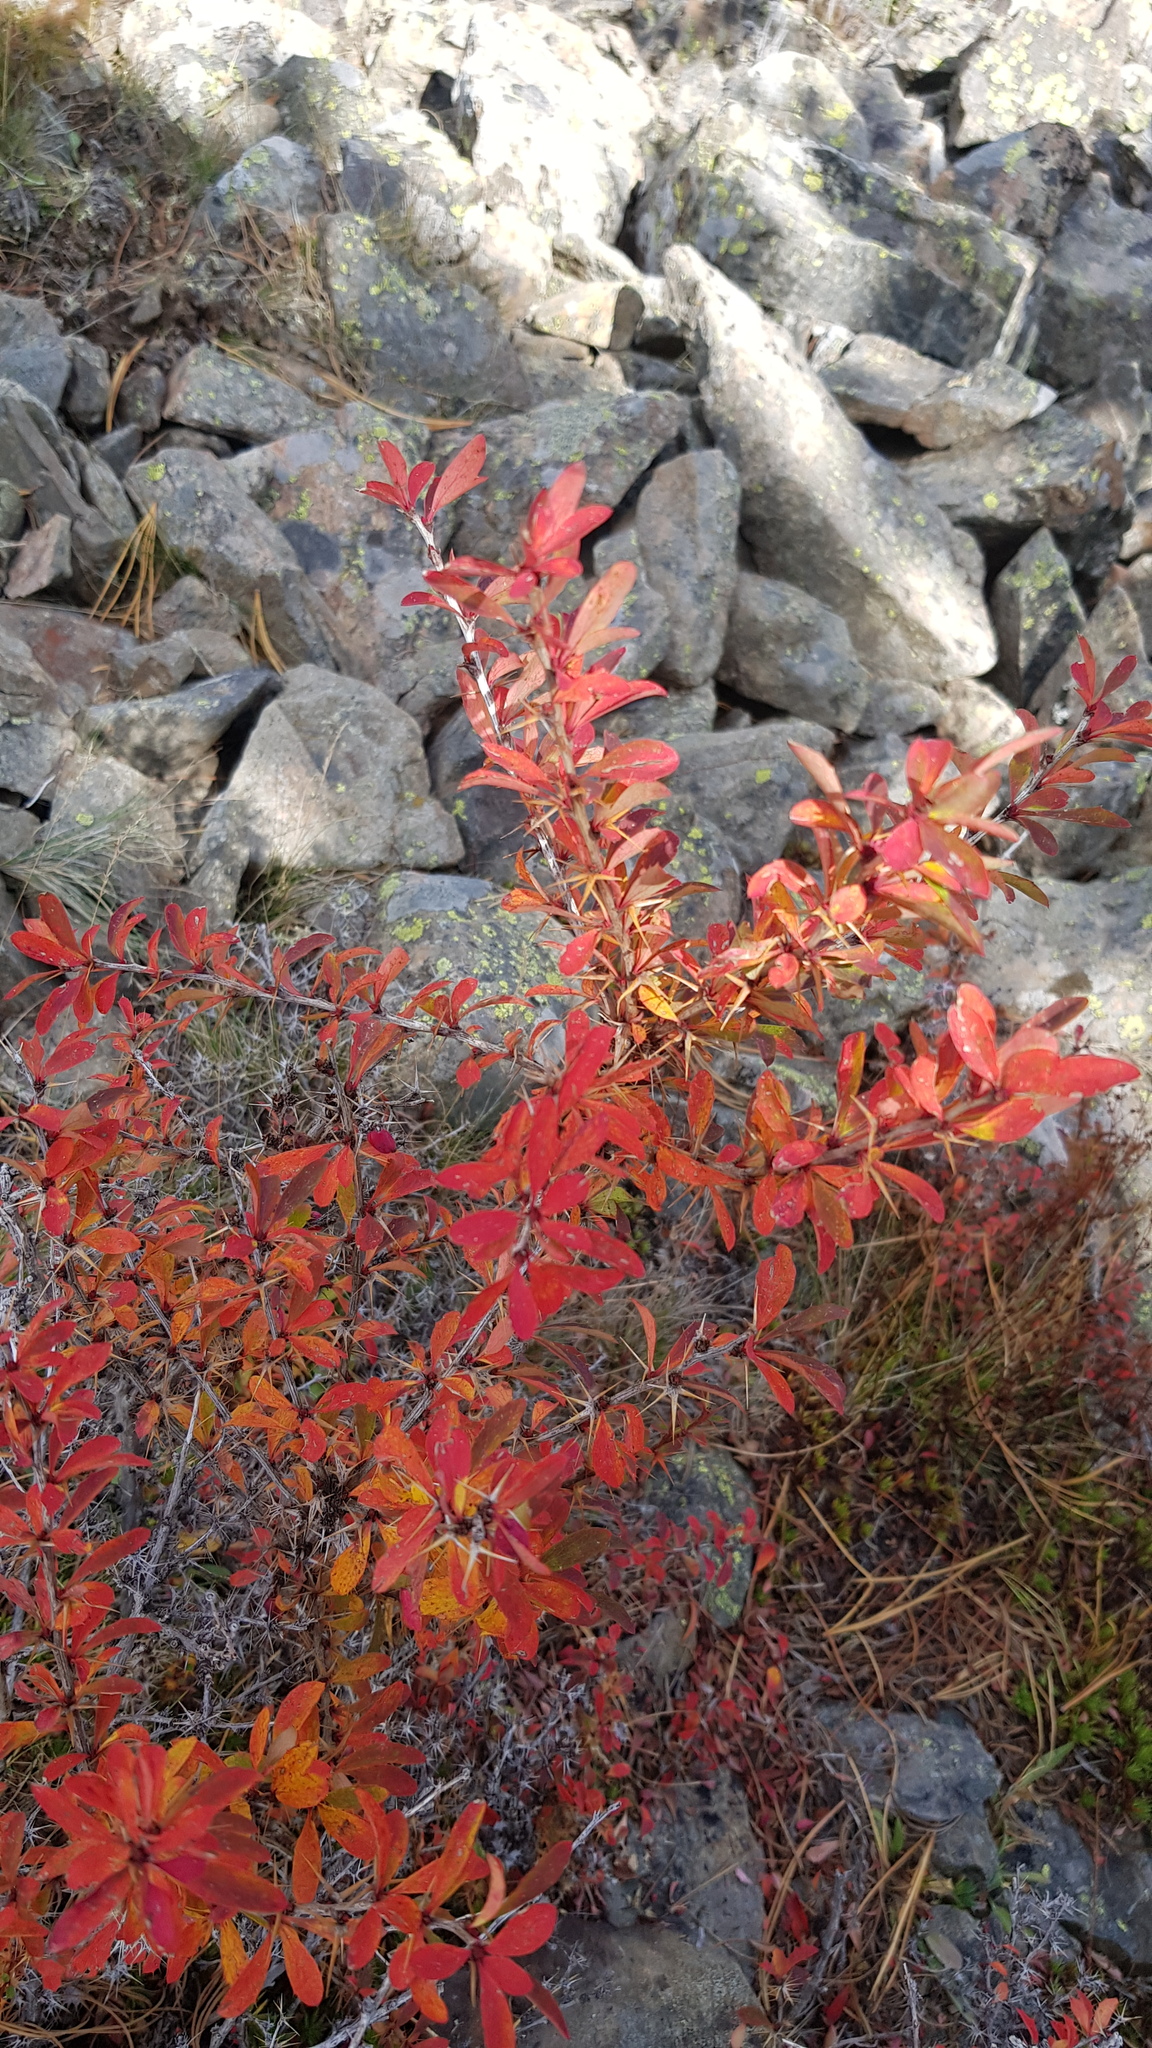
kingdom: Plantae
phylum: Tracheophyta
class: Magnoliopsida
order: Ranunculales
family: Berberidaceae
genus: Berberis
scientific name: Berberis sibirica
